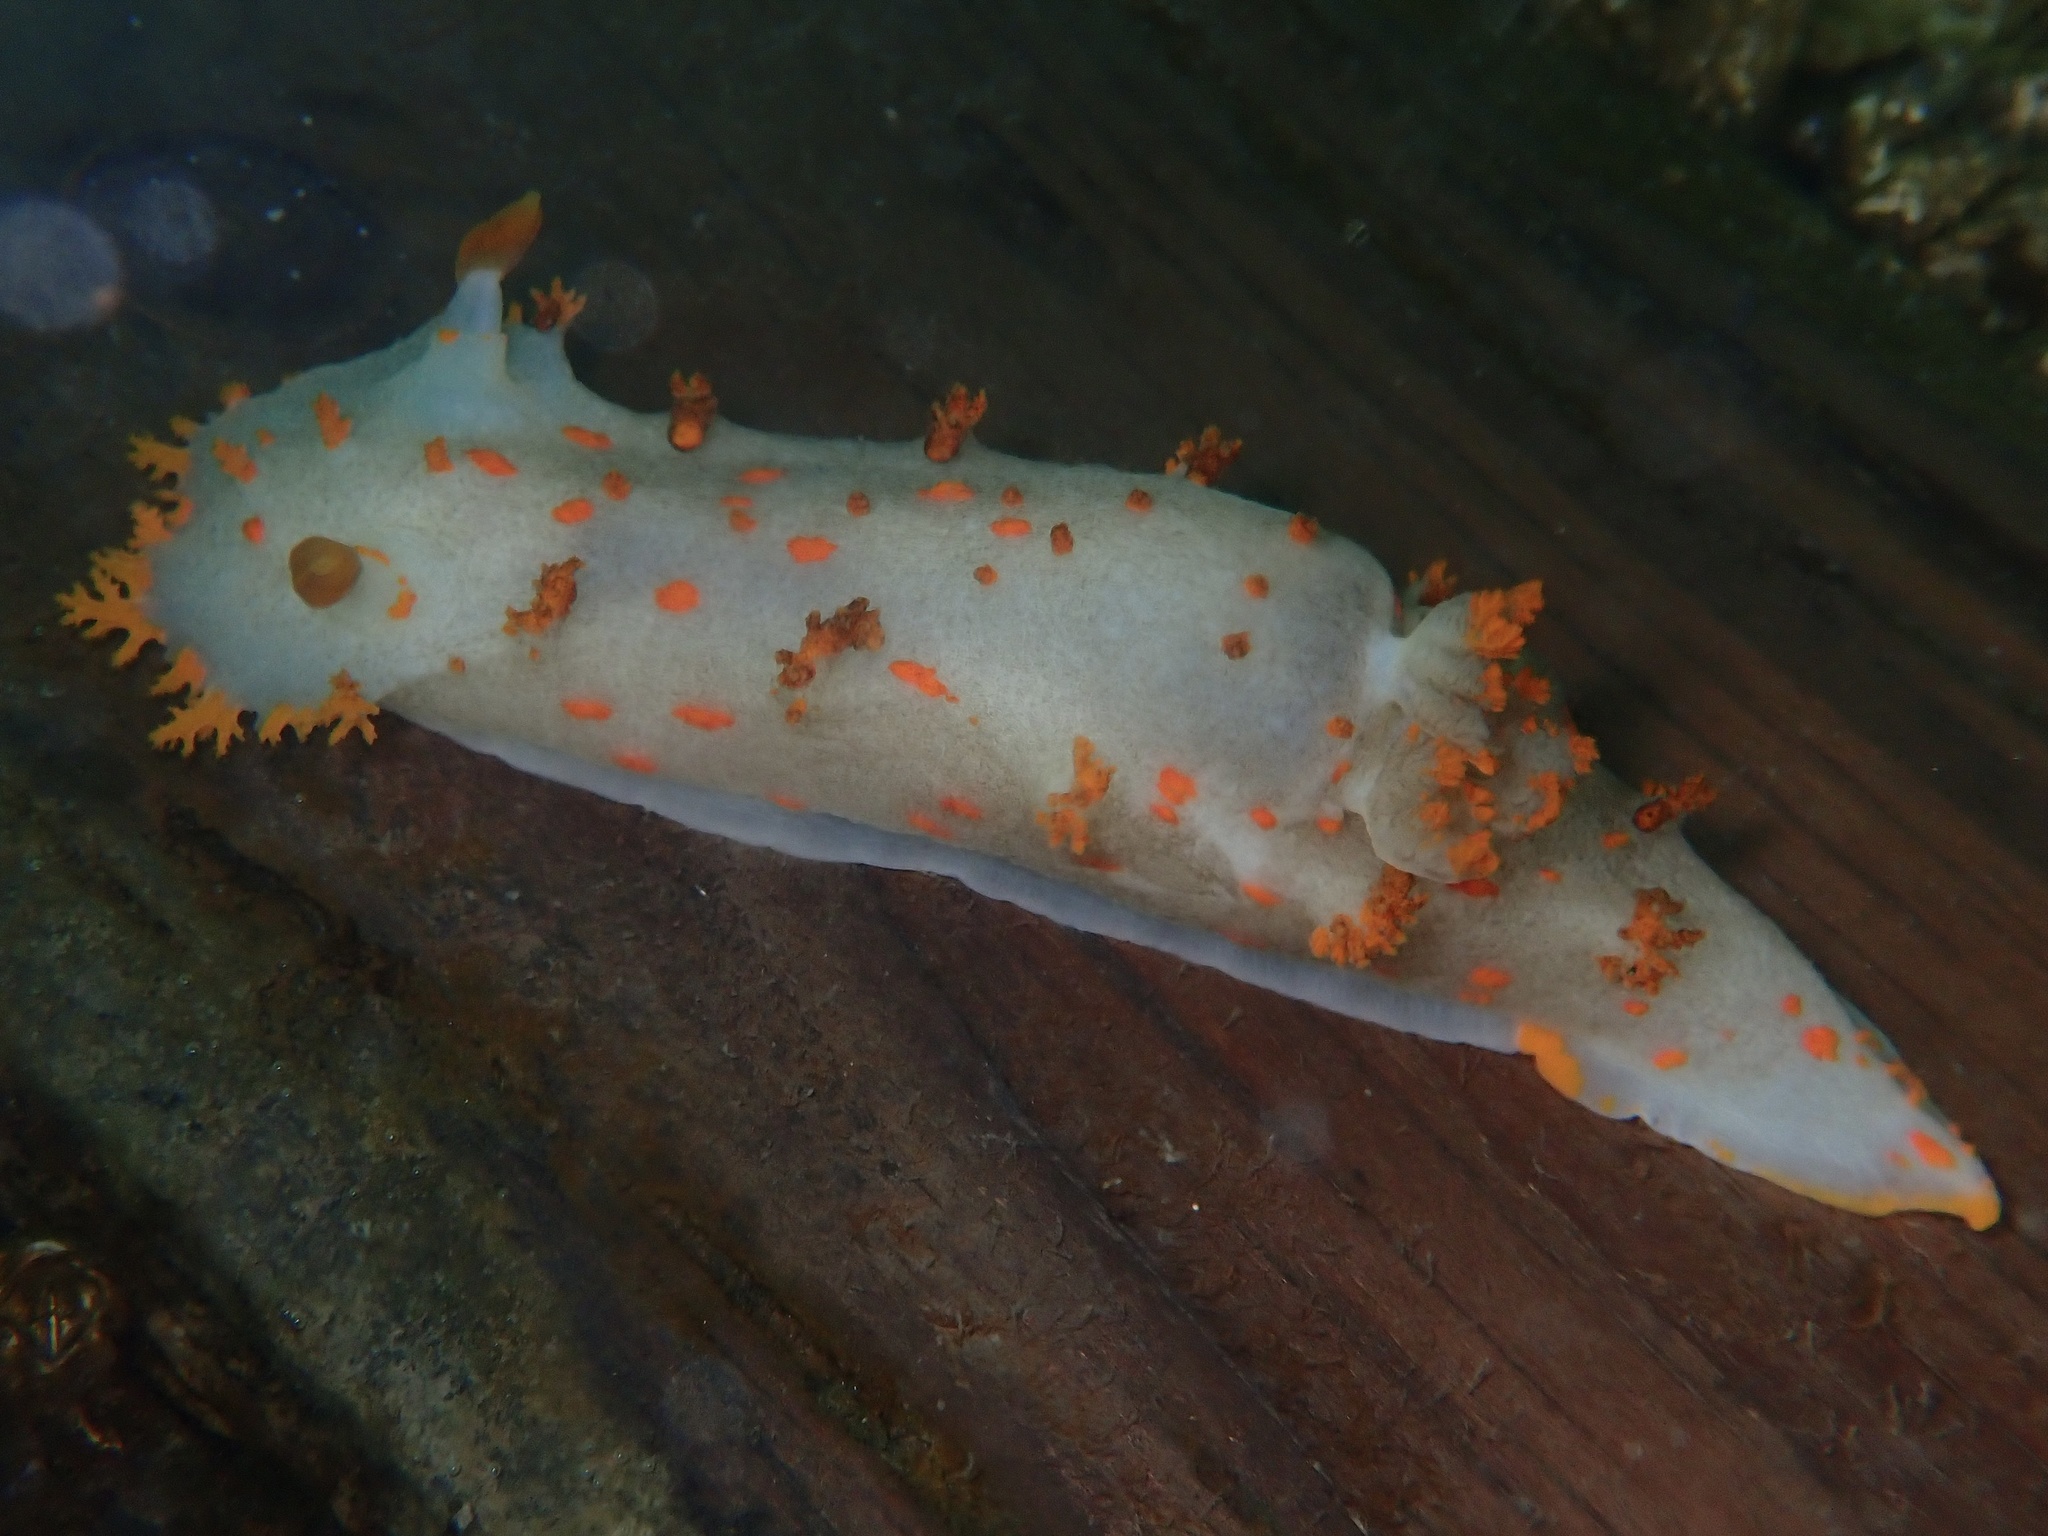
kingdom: Animalia
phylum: Mollusca
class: Gastropoda
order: Nudibranchia
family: Polyceridae
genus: Triopha
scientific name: Triopha modesta
